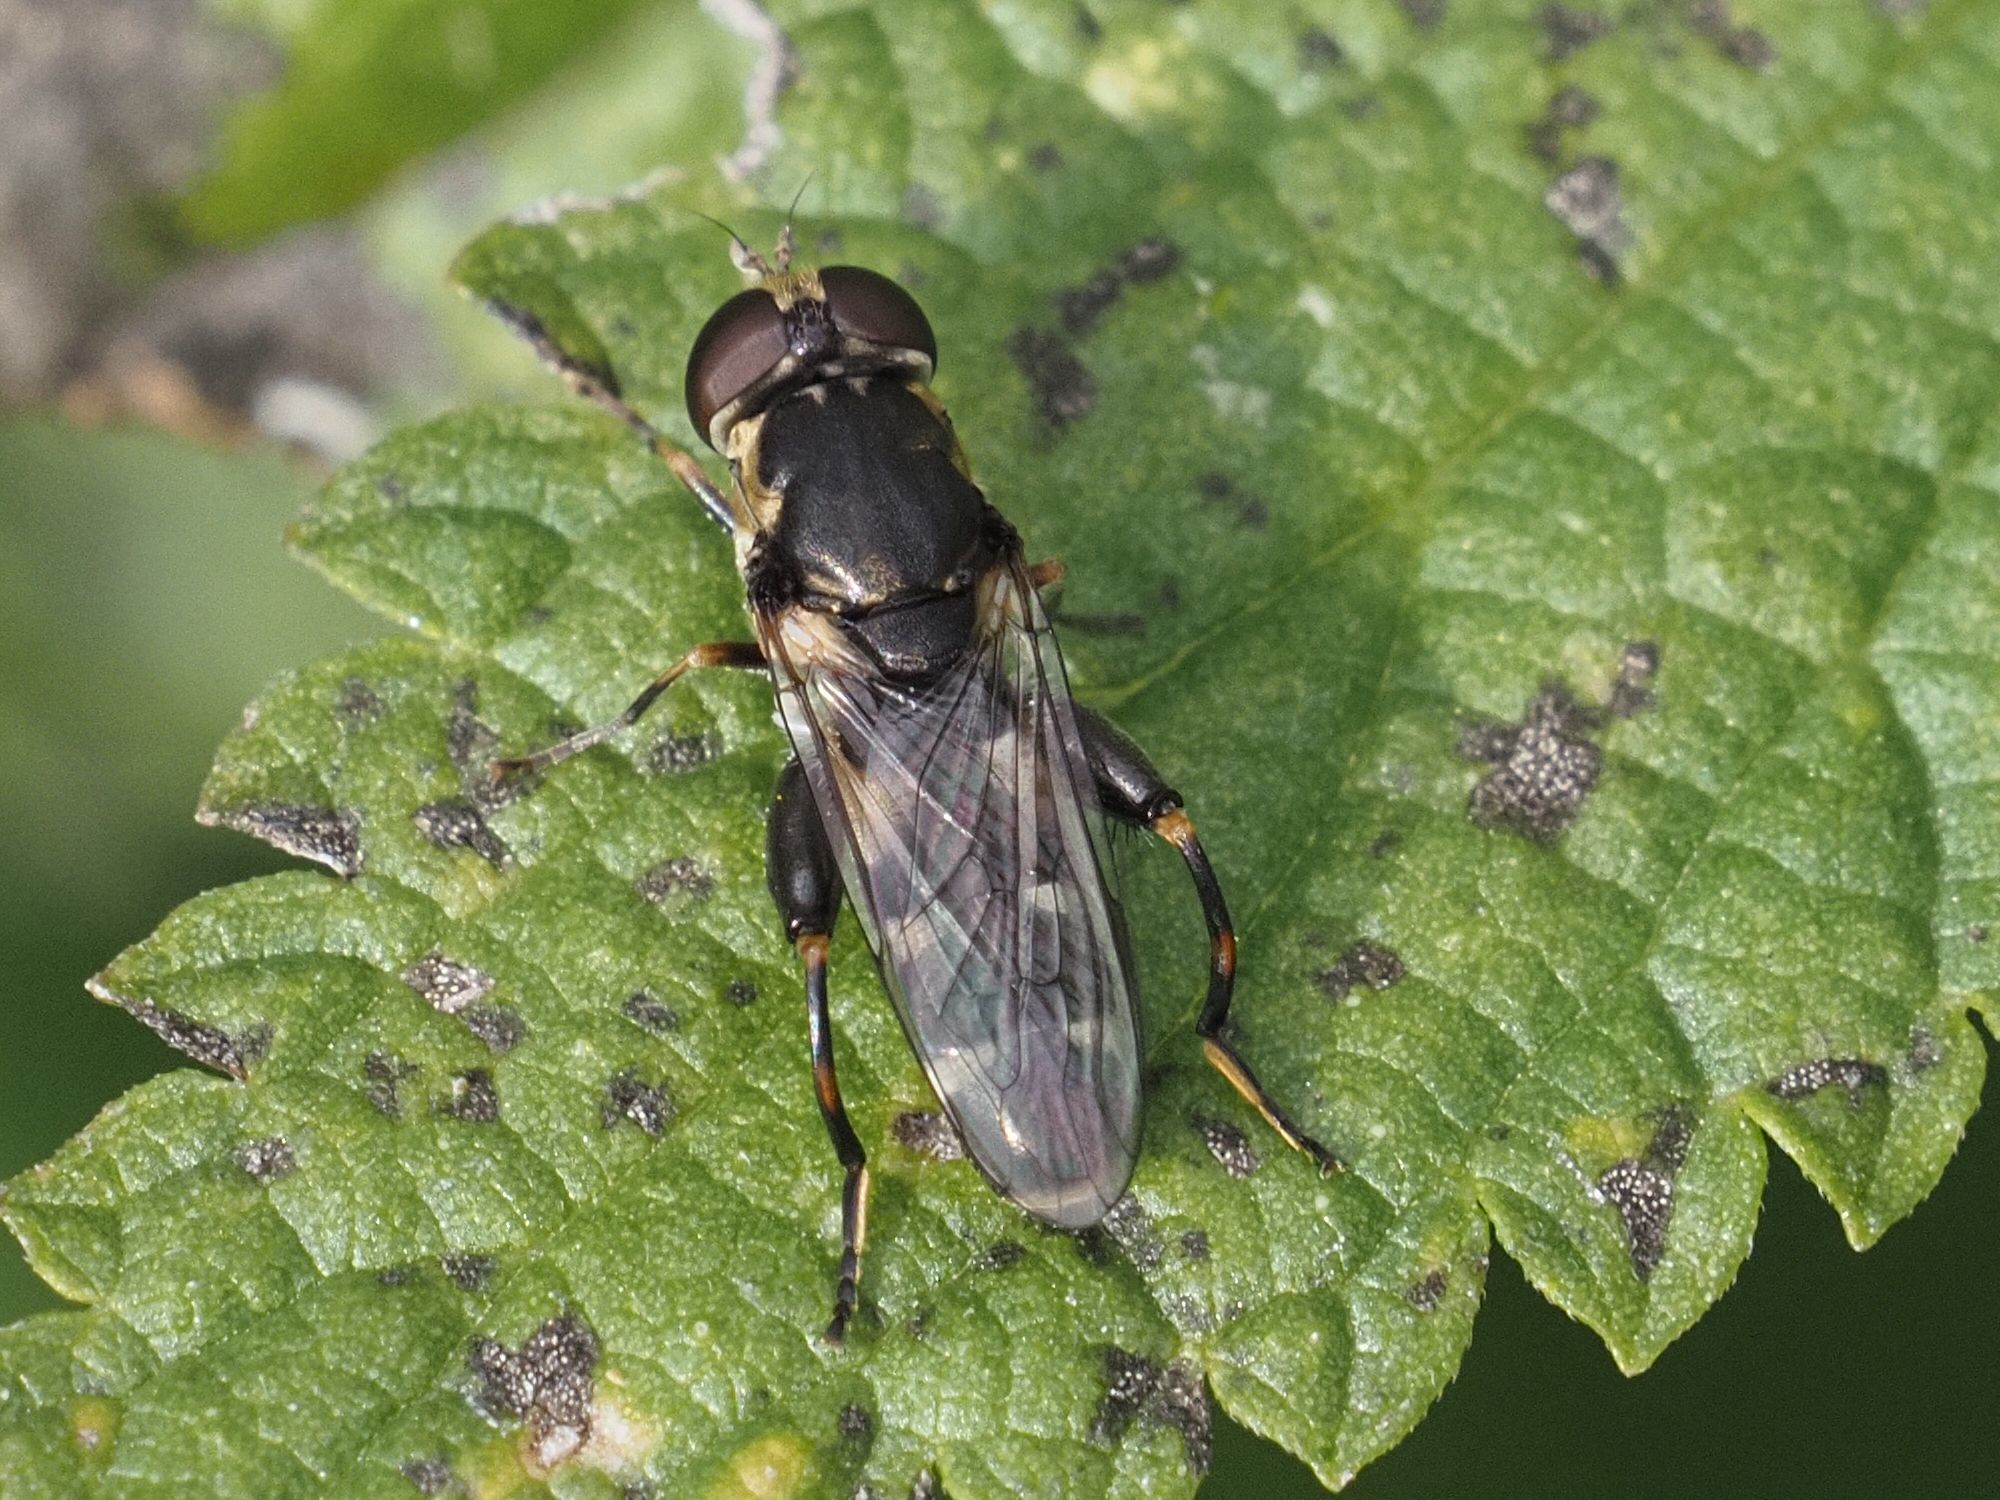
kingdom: Animalia
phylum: Arthropoda
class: Insecta
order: Diptera
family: Syrphidae
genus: Syritta
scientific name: Syritta pipiens
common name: Hover fly
